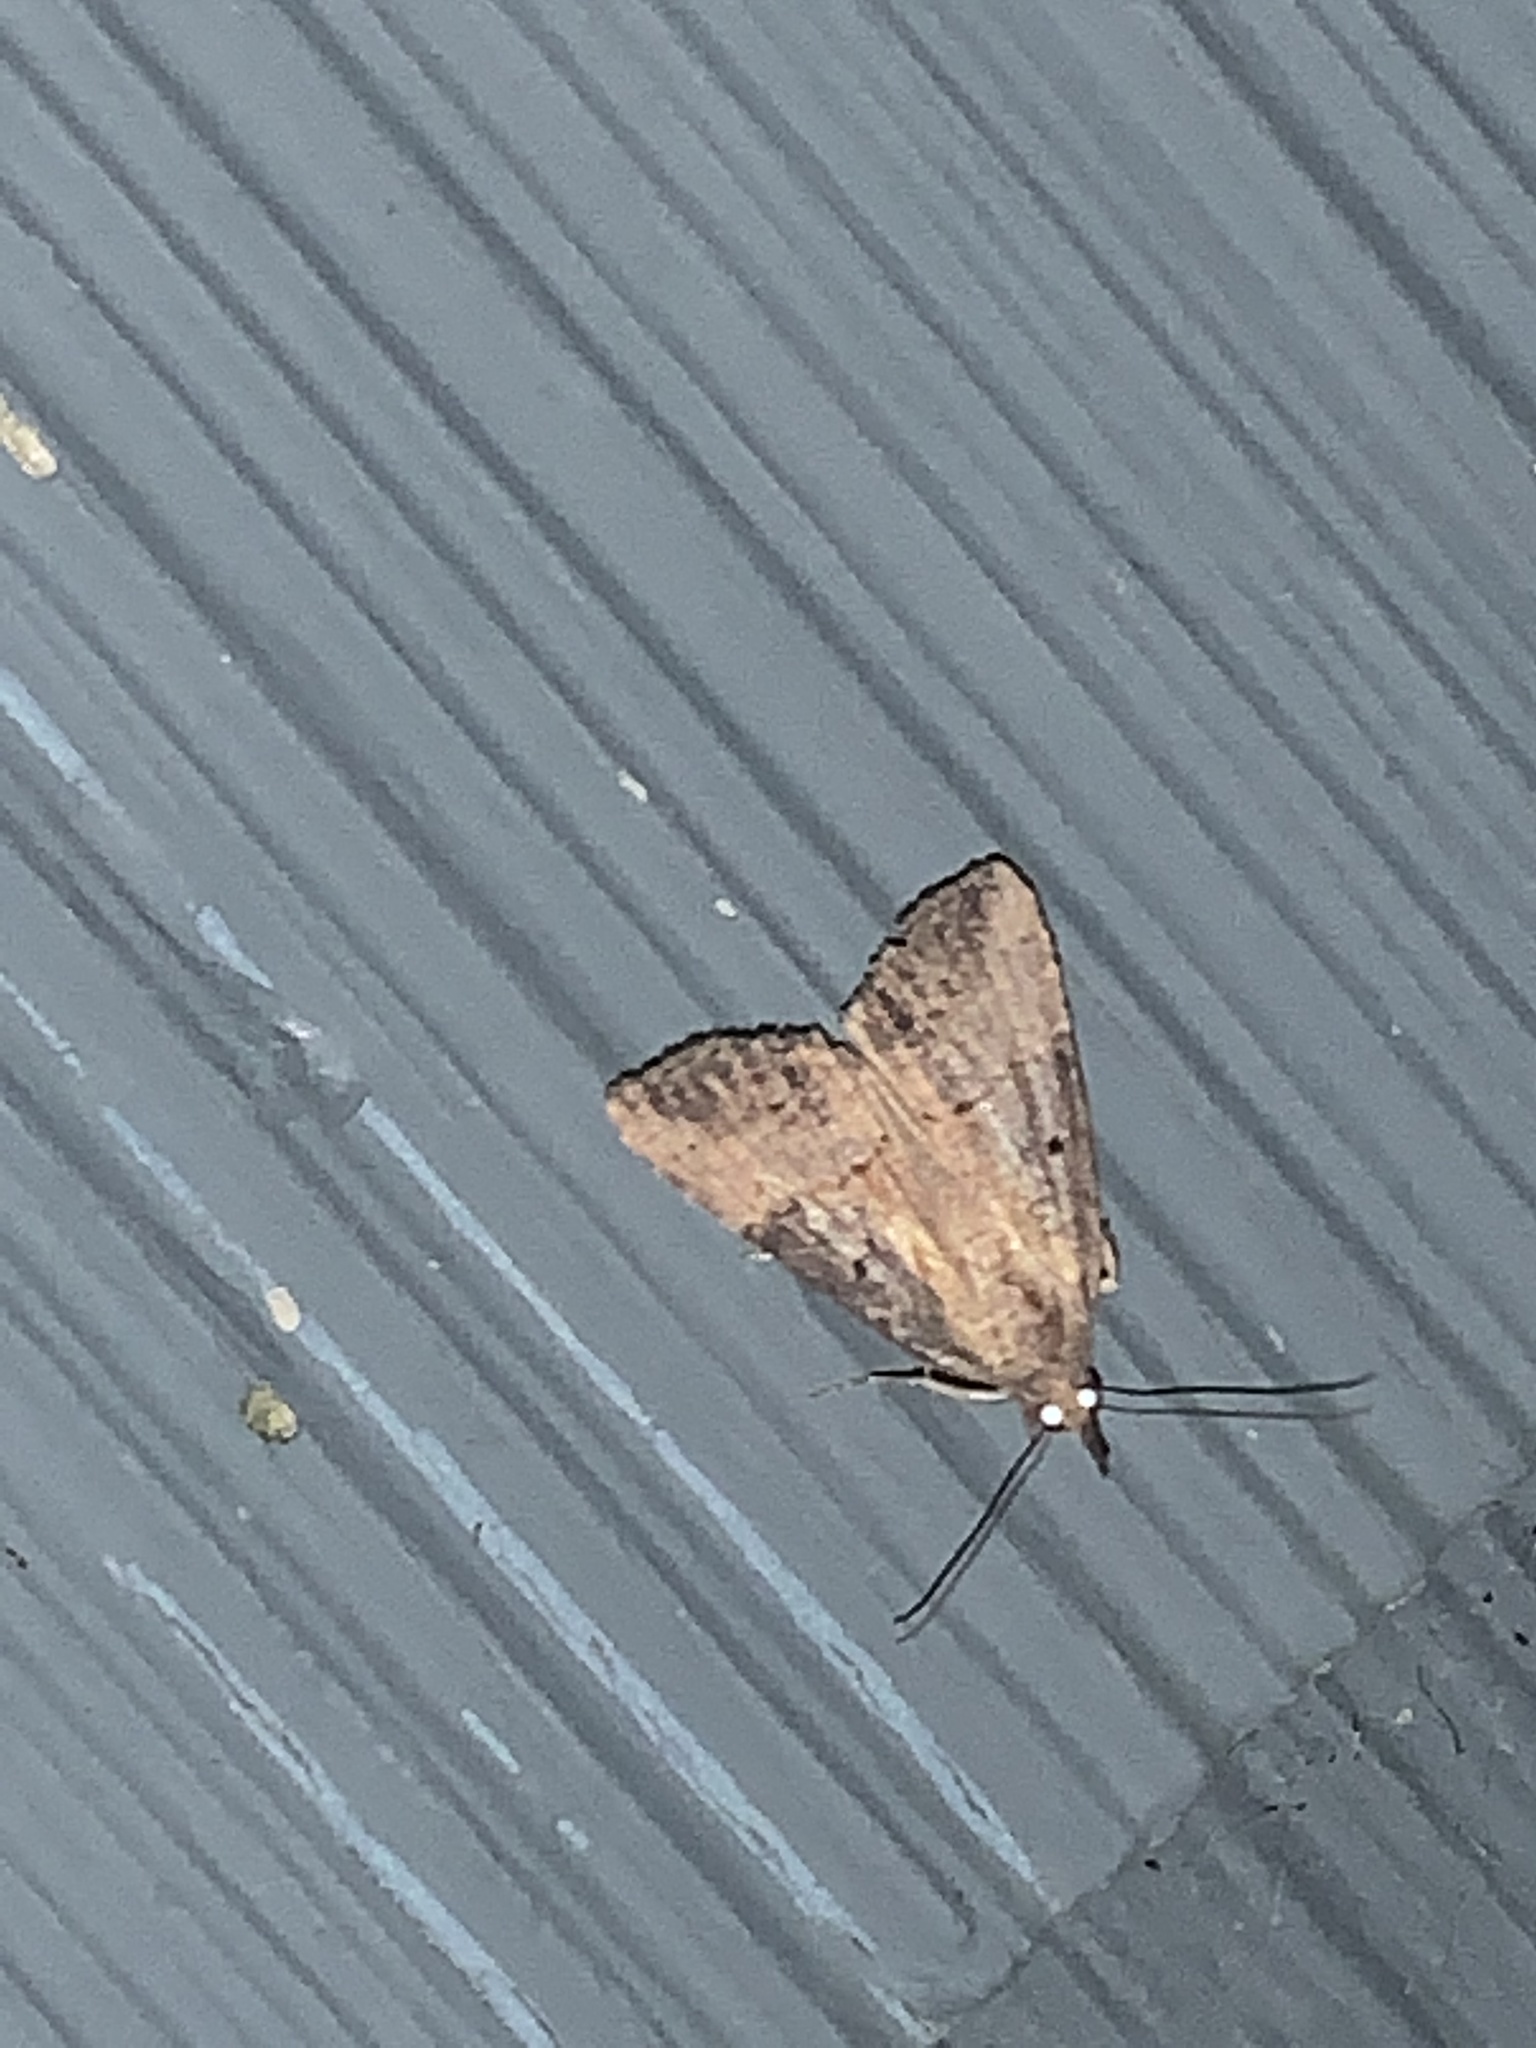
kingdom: Animalia
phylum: Arthropoda
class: Insecta
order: Lepidoptera
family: Erebidae
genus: Hypena
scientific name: Hypena scabra
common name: Green cloverworm
